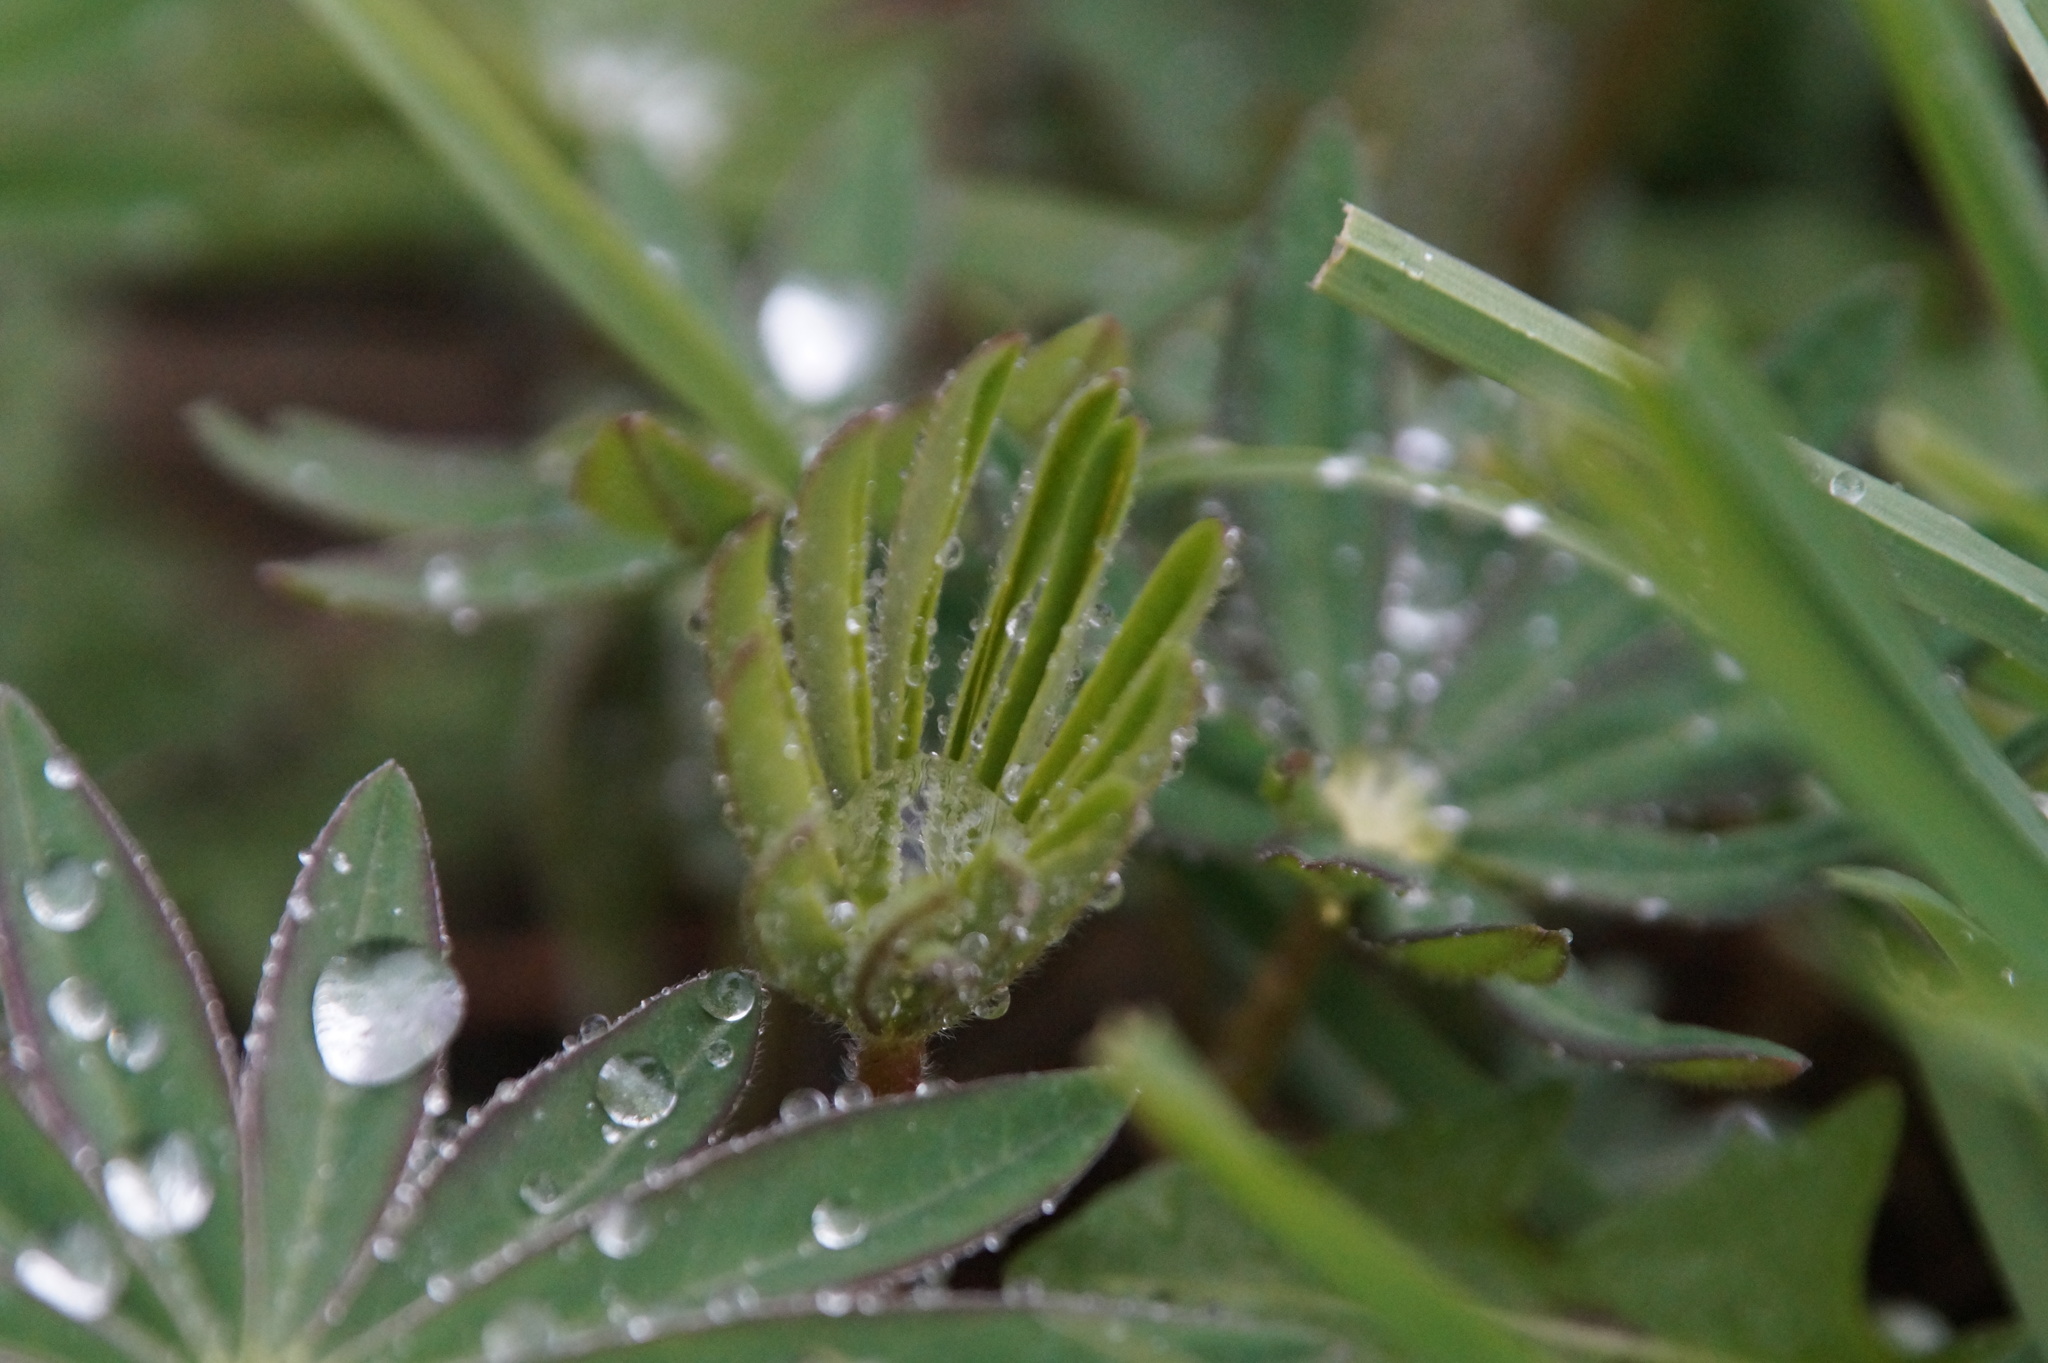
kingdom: Plantae
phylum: Tracheophyta
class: Magnoliopsida
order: Fabales
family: Fabaceae
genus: Lupinus
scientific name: Lupinus polyphyllus
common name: Garden lupin
